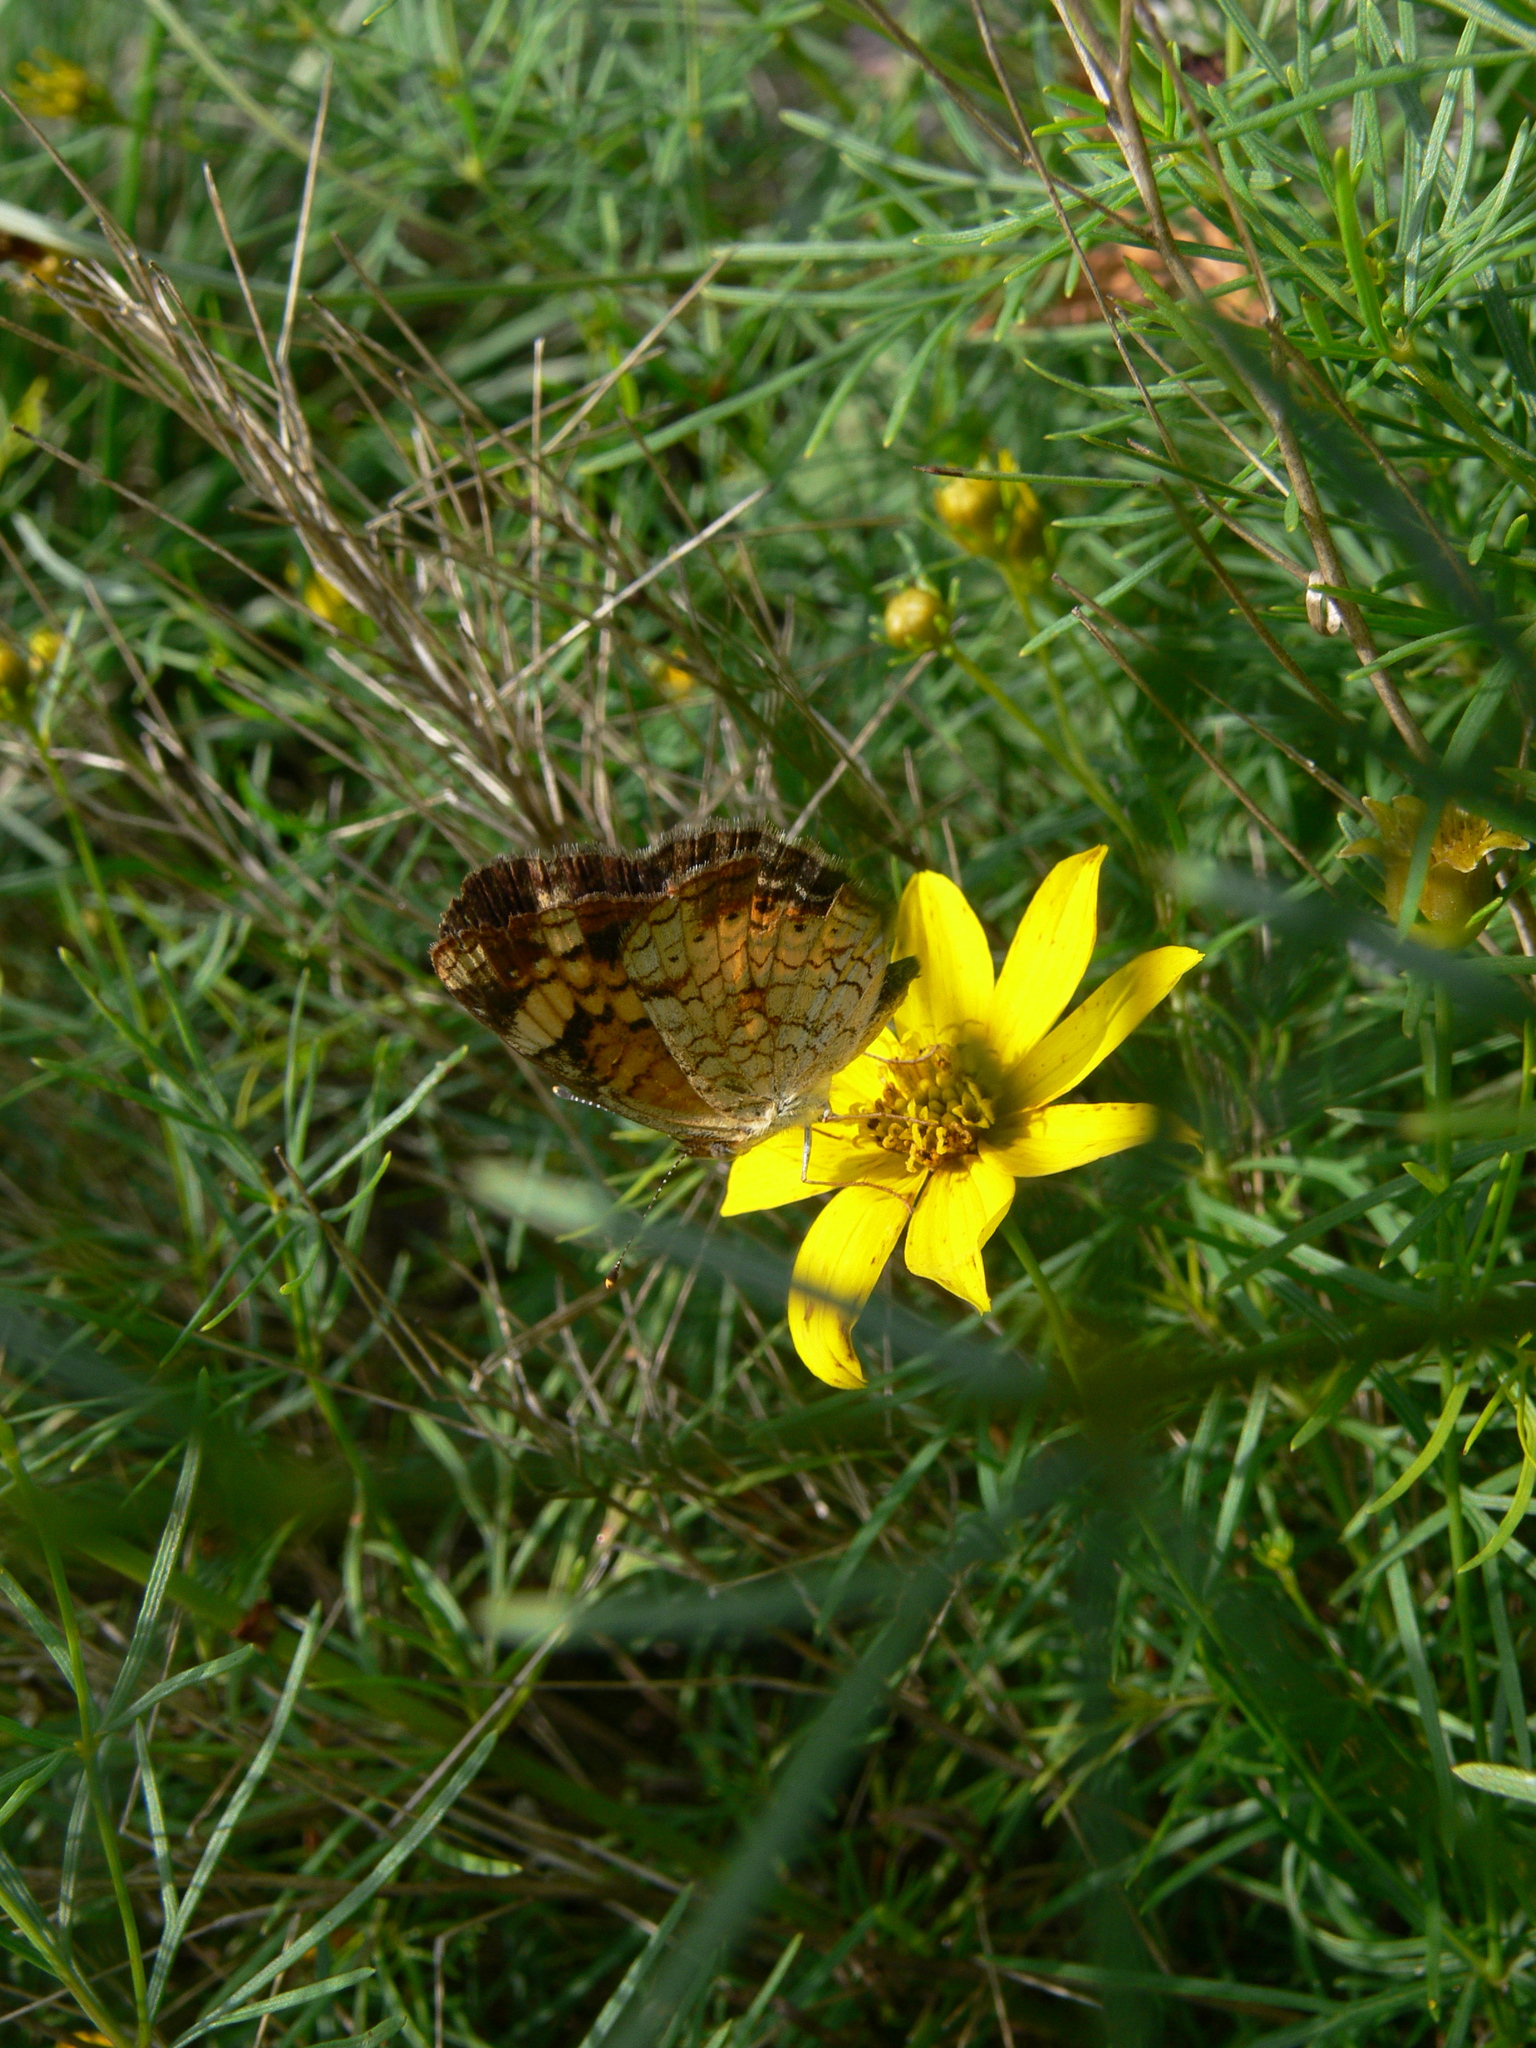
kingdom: Animalia
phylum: Arthropoda
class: Insecta
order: Lepidoptera
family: Nymphalidae
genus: Phyciodes
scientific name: Phyciodes tharos
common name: Pearl crescent
